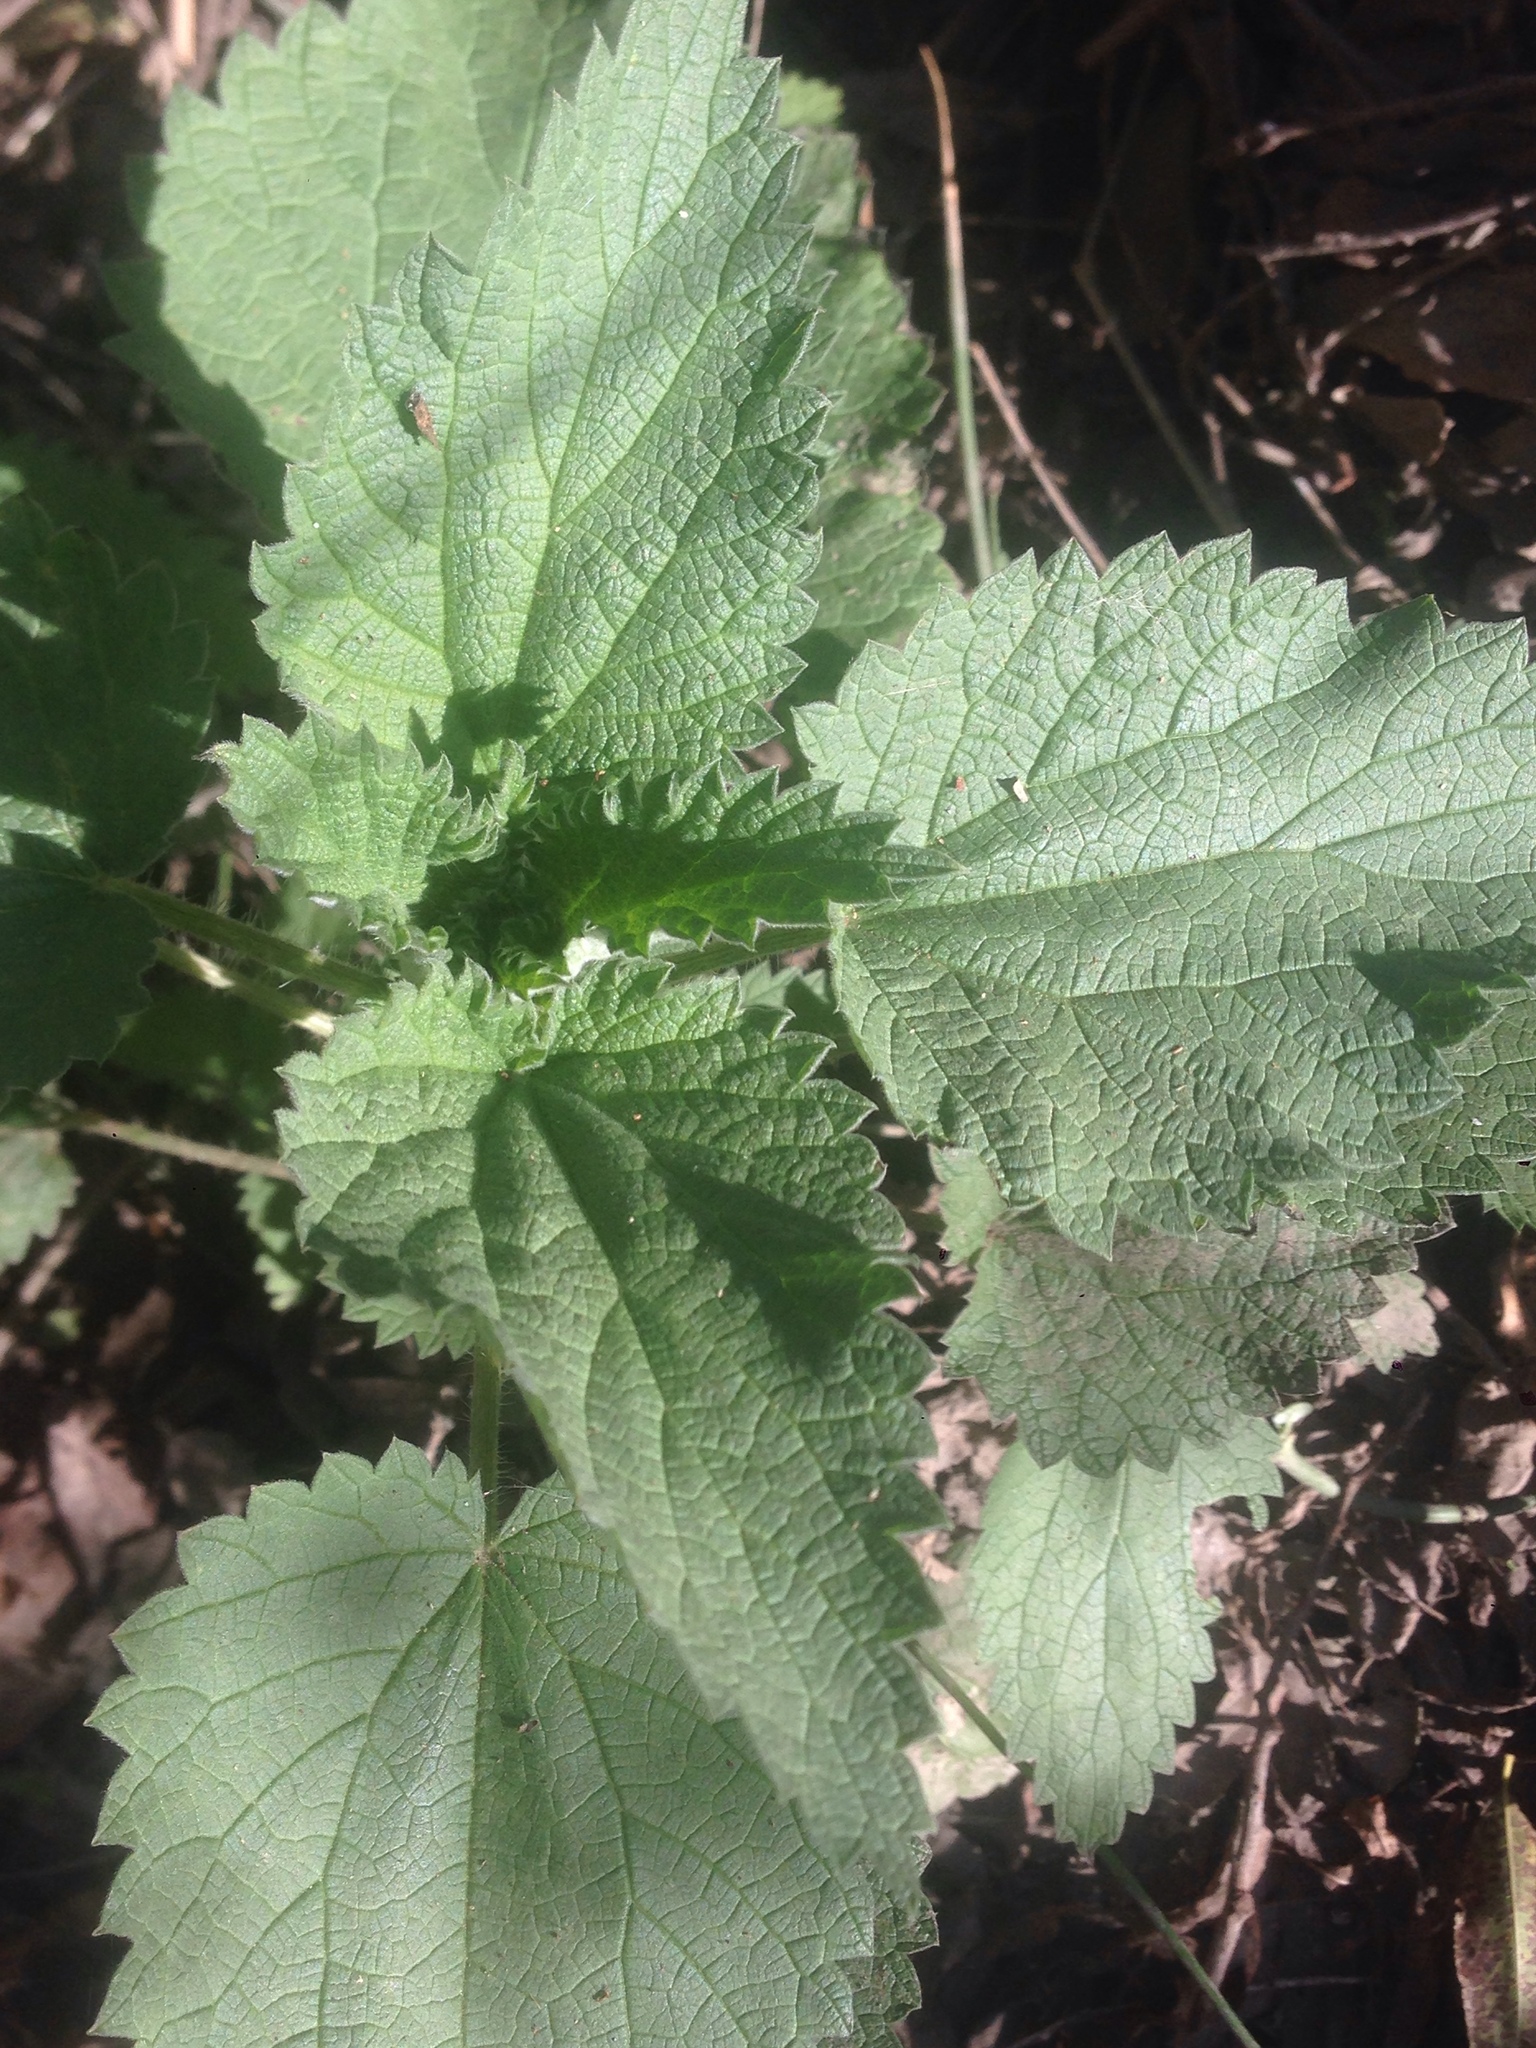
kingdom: Plantae
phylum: Tracheophyta
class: Magnoliopsida
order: Rosales
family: Urticaceae
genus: Urtica
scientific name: Urtica dioica
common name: Common nettle
